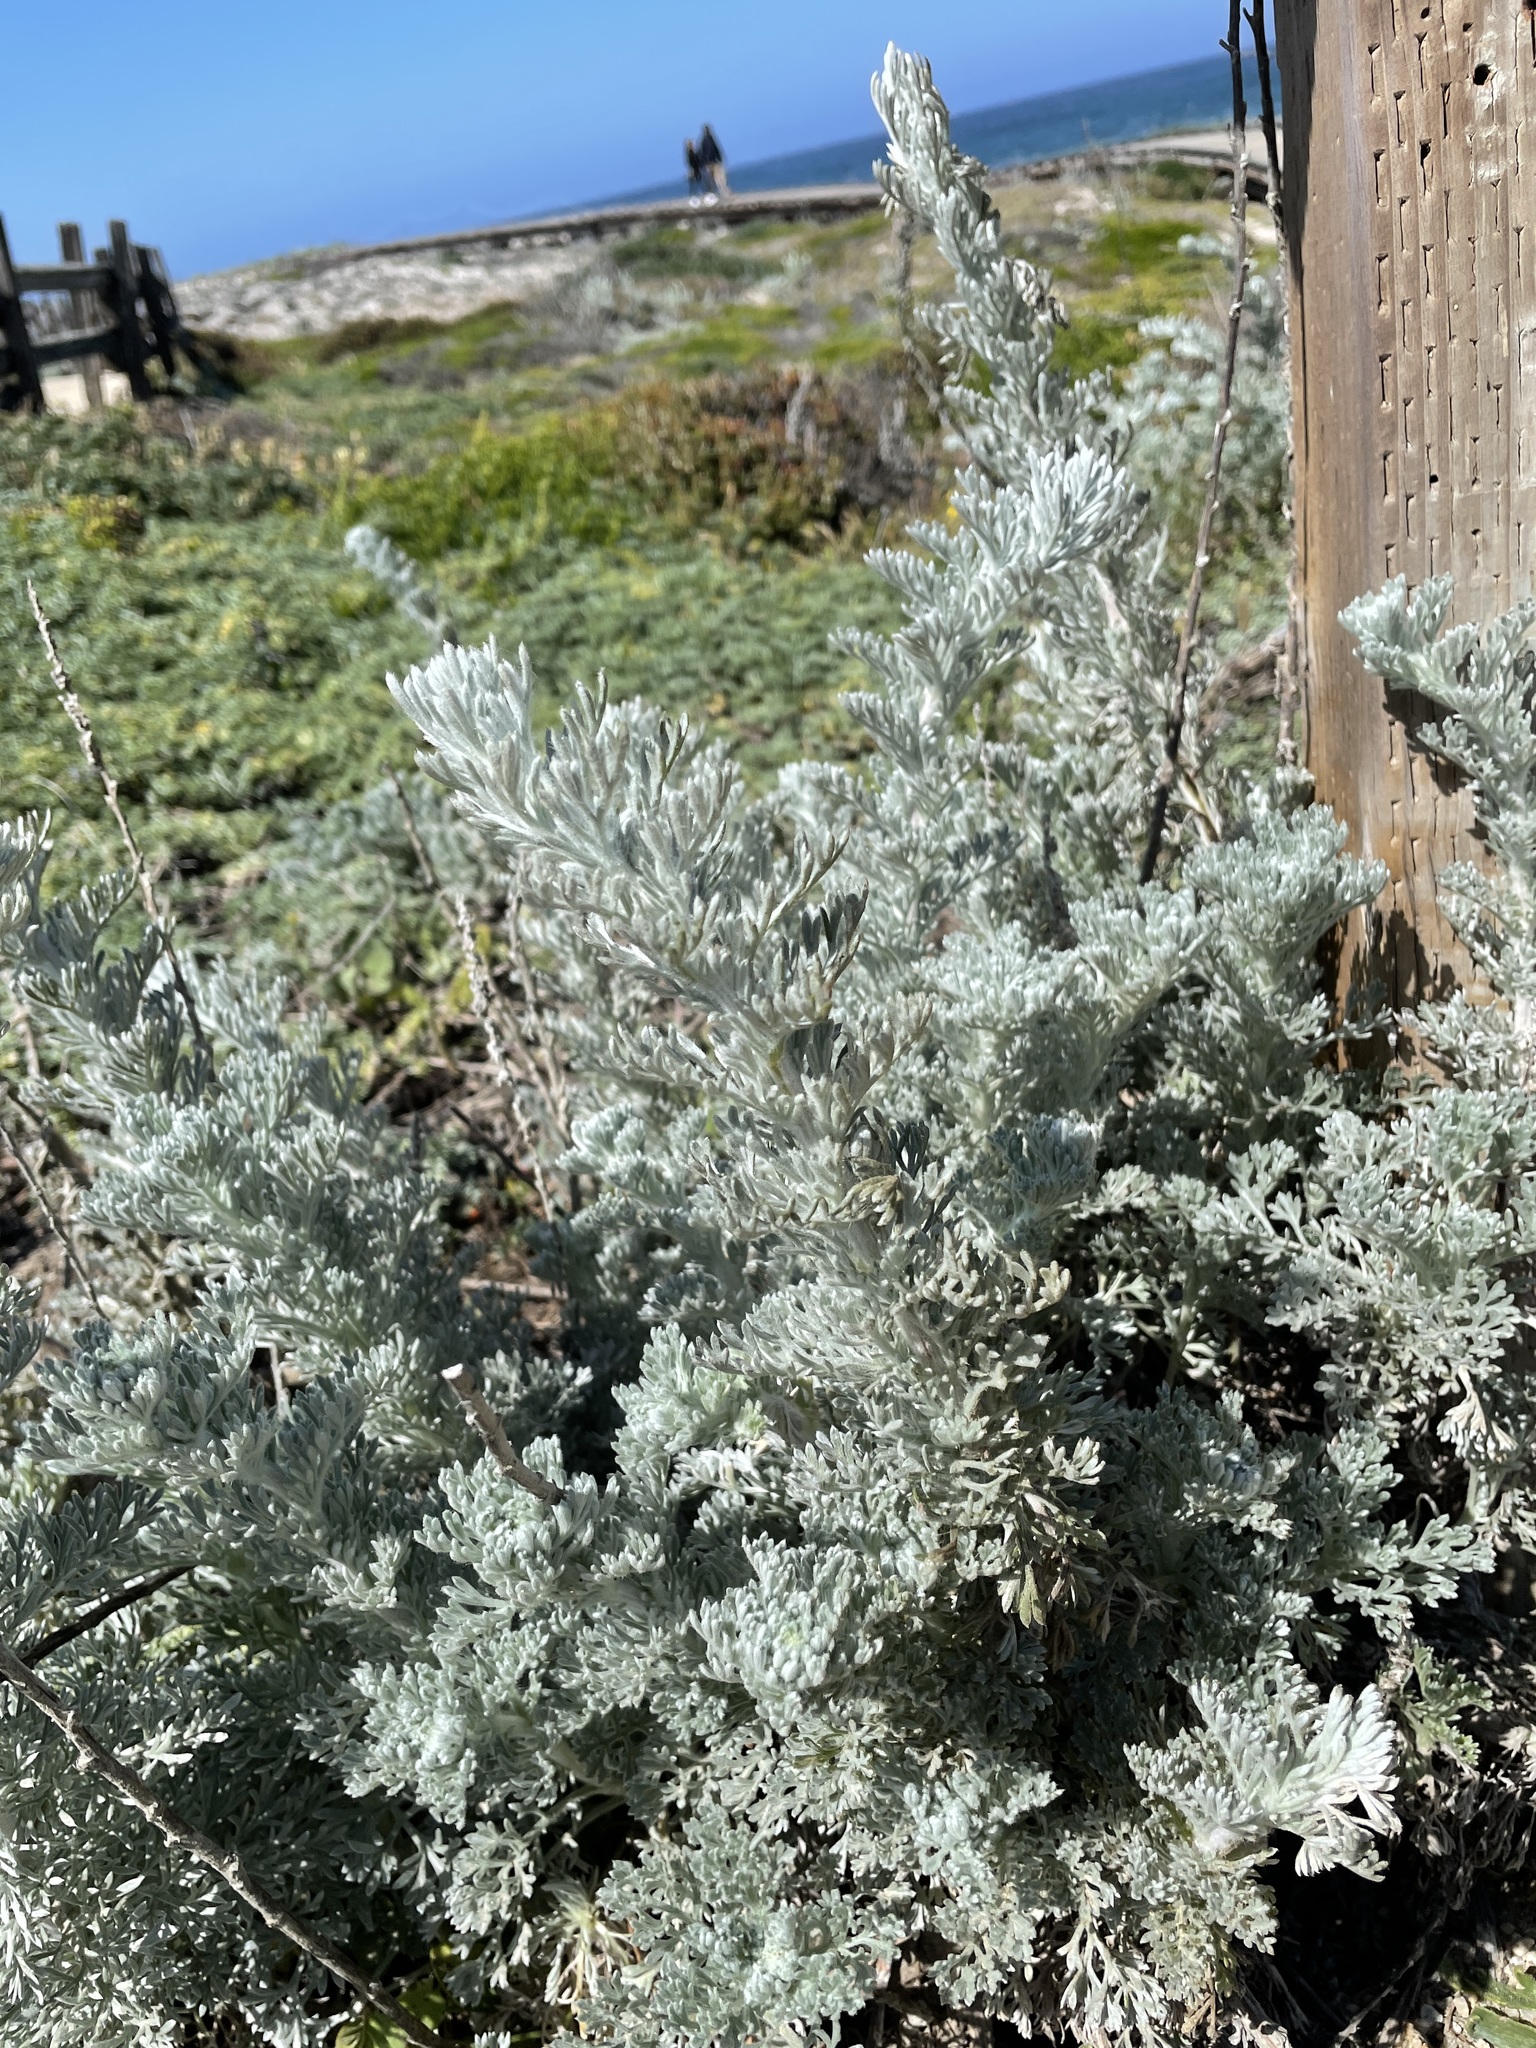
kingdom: Plantae
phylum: Tracheophyta
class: Magnoliopsida
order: Asterales
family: Asteraceae
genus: Artemisia
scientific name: Artemisia pycnocephala
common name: Coastal sagewort
